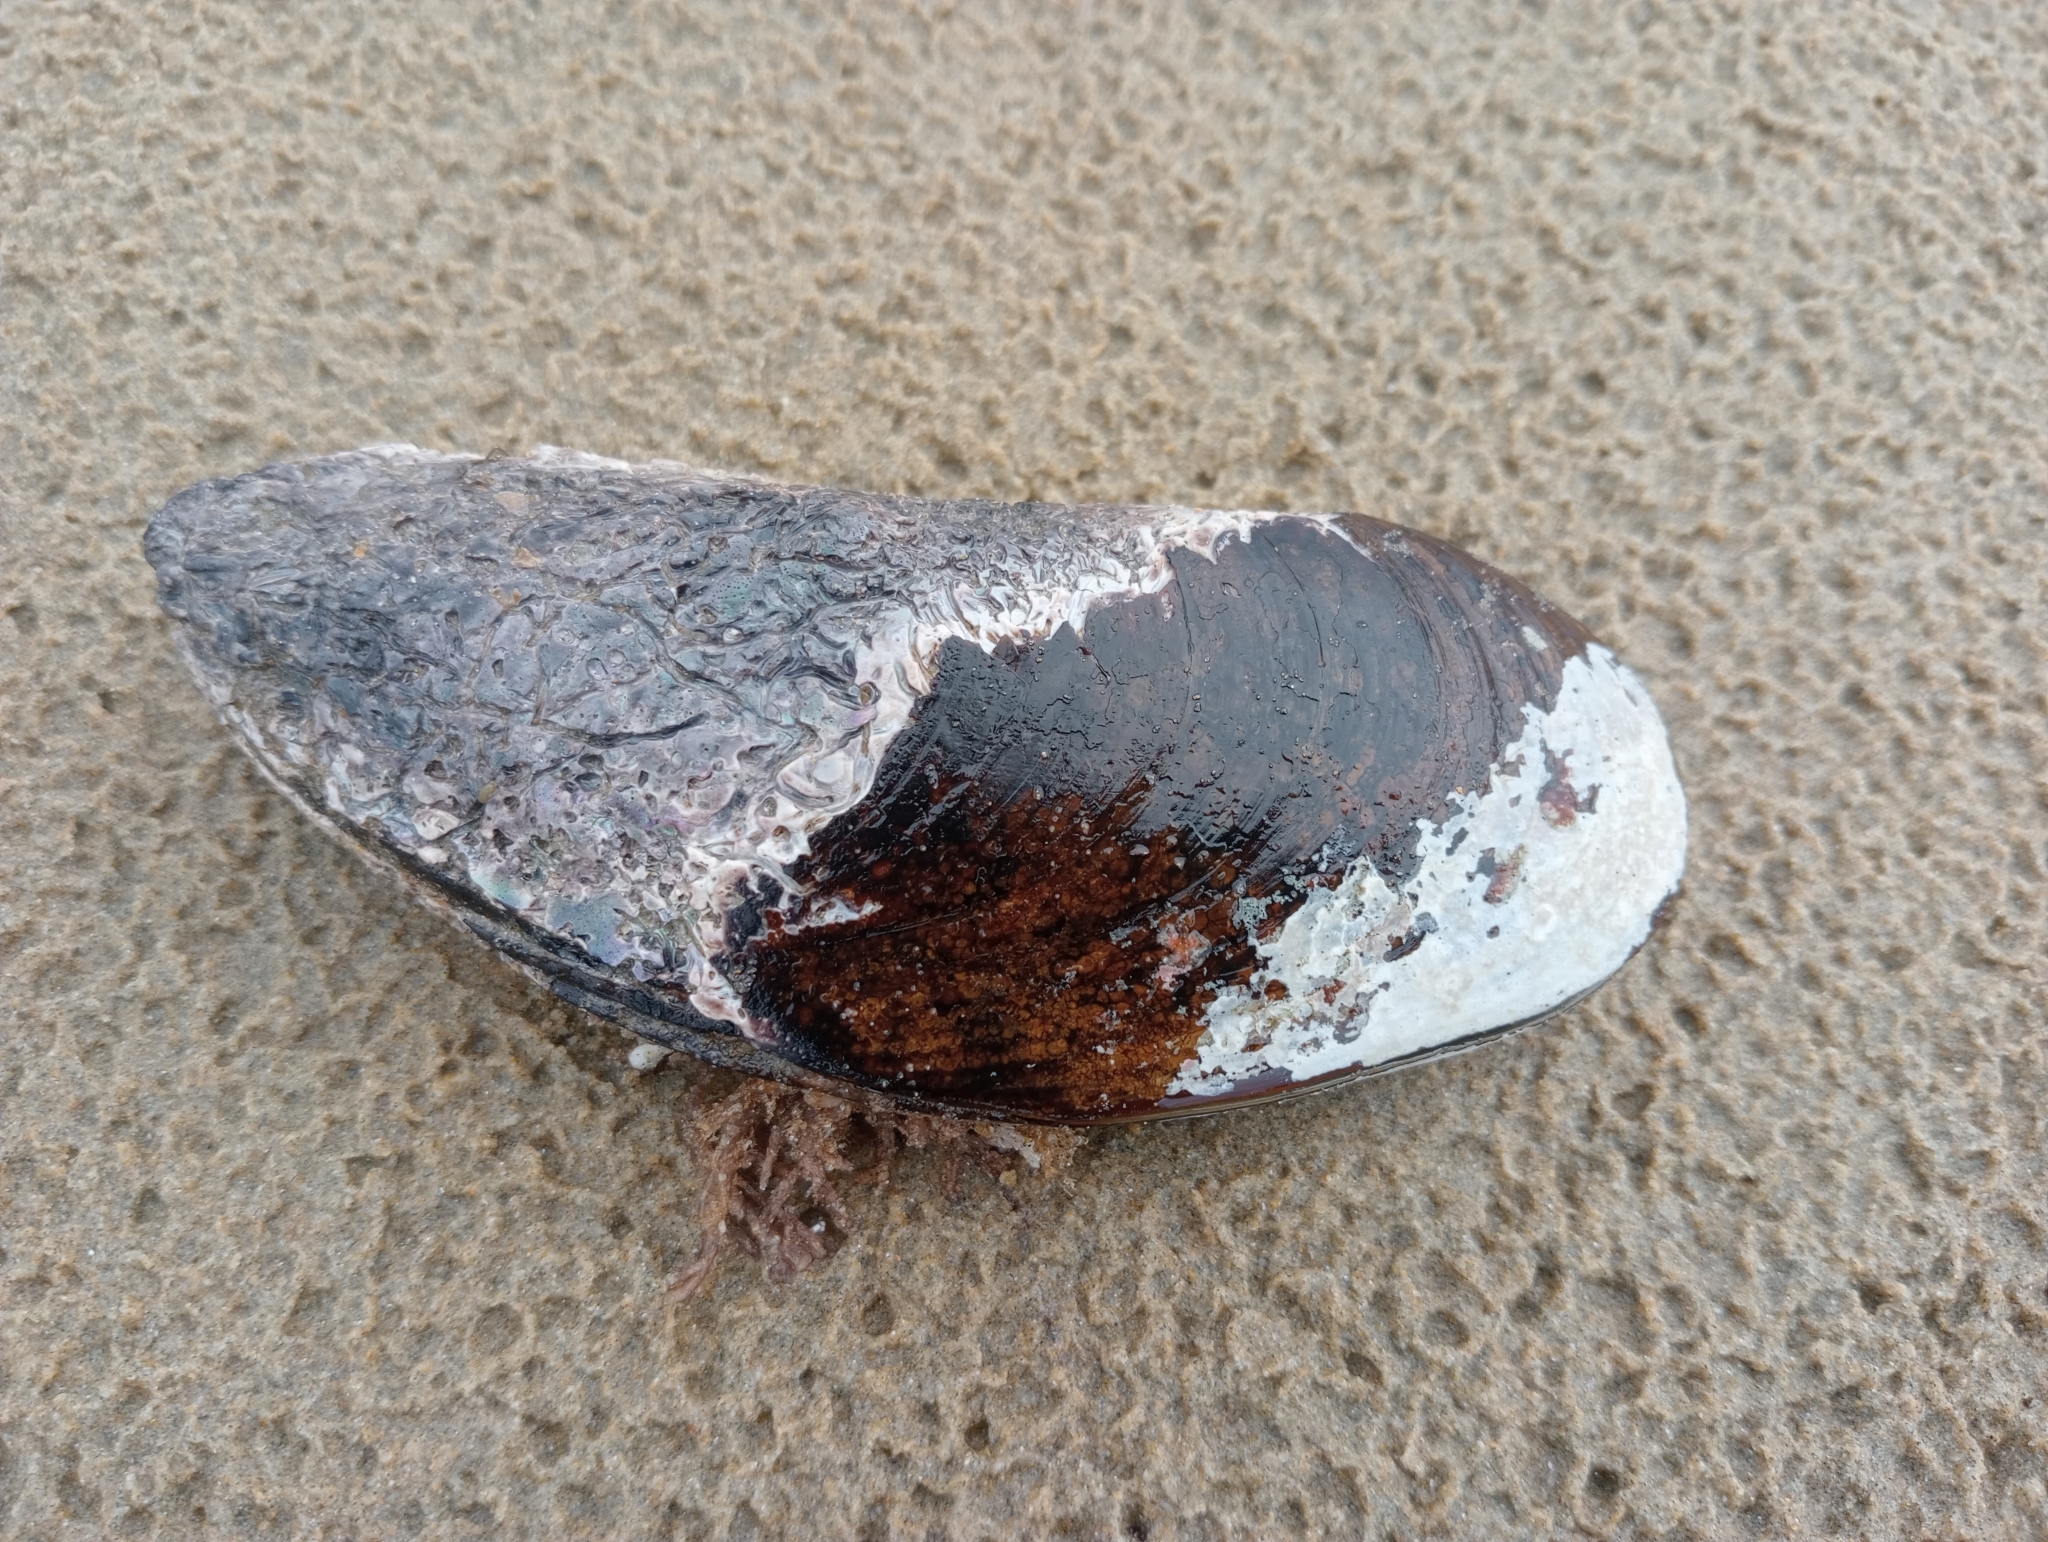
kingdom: Animalia
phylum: Mollusca
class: Bivalvia
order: Mytilida
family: Mytilidae
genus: Perna
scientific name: Perna canaliculus
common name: New zealand greenshelltm
